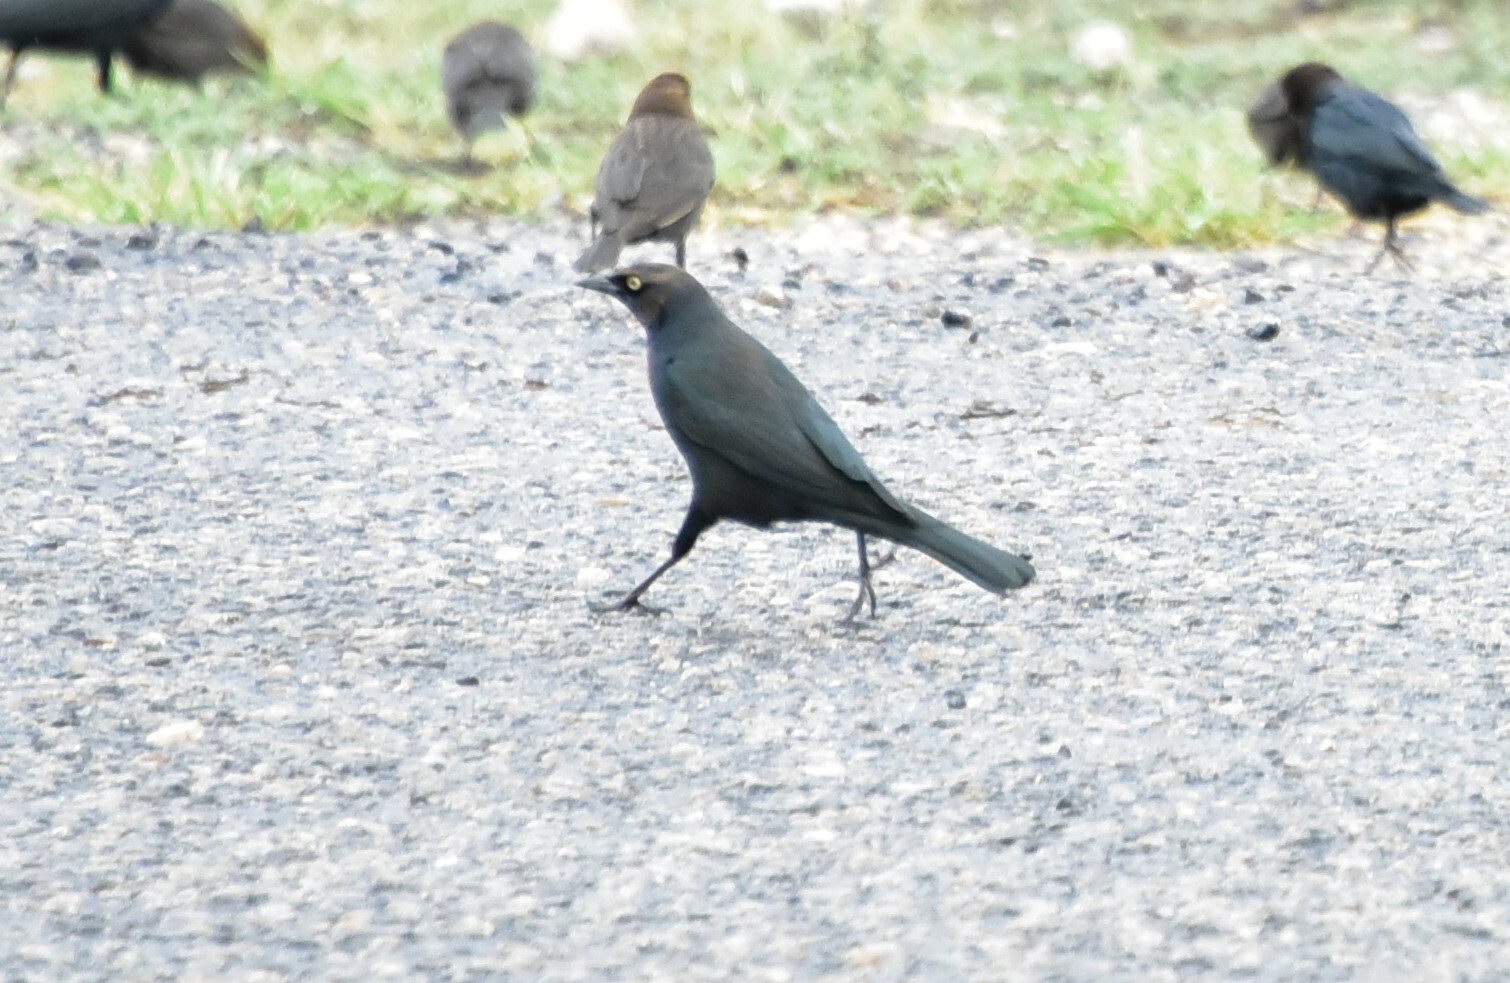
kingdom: Animalia
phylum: Chordata
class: Aves
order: Passeriformes
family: Icteridae
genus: Euphagus
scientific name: Euphagus cyanocephalus
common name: Brewer's blackbird
